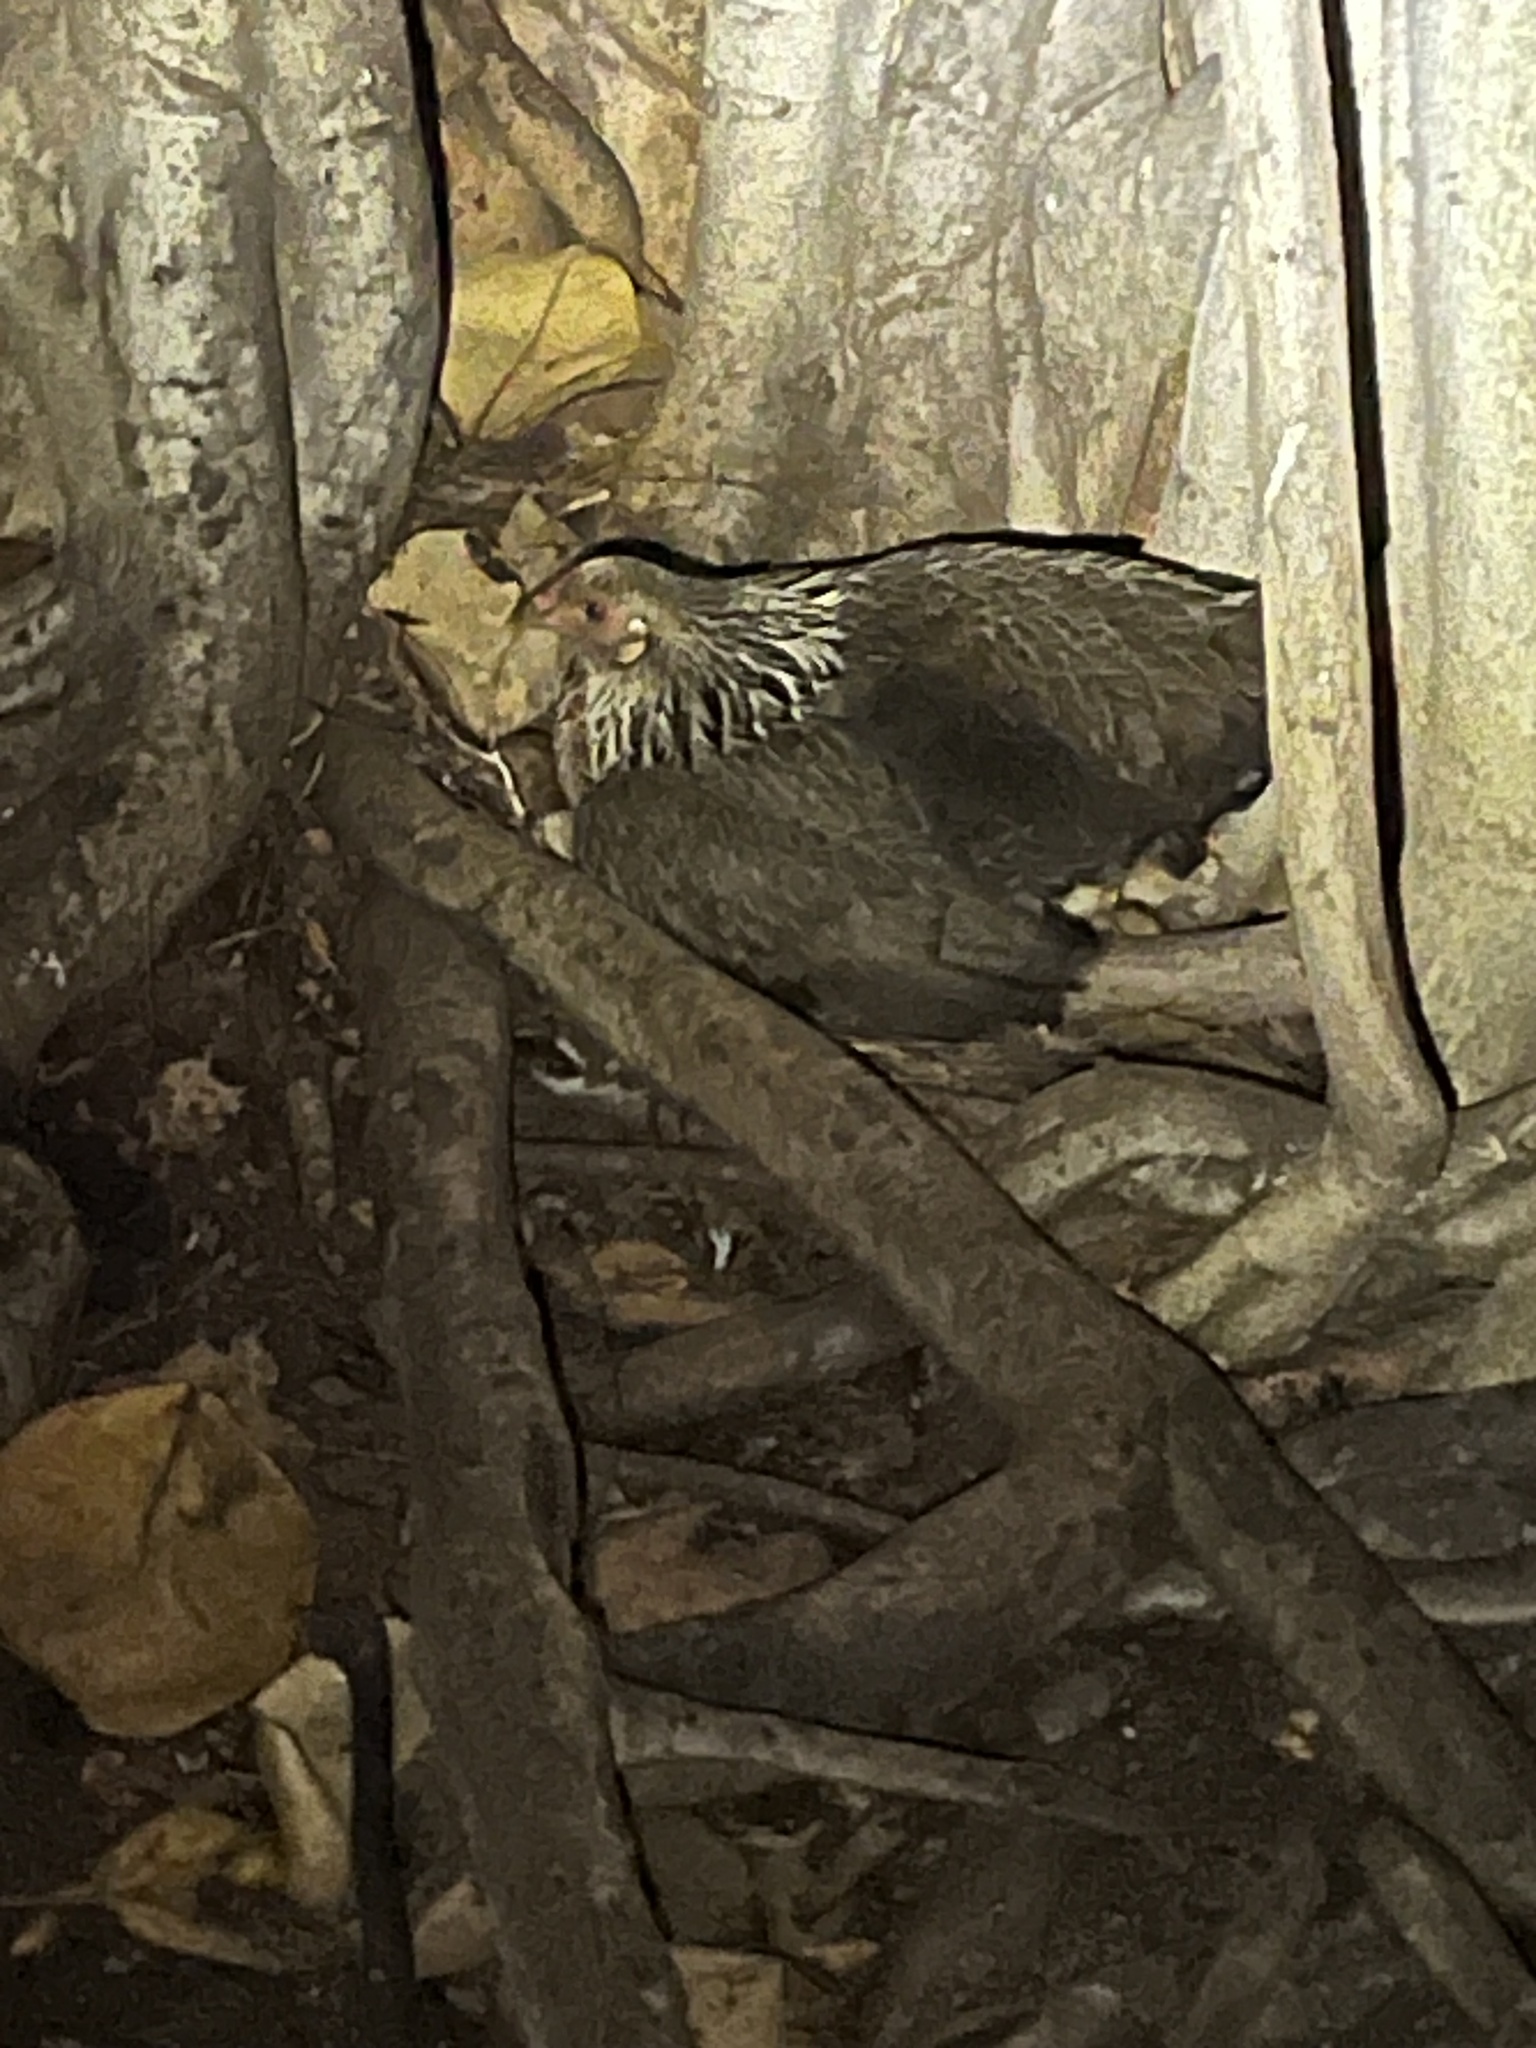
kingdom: Animalia
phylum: Chordata
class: Aves
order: Galliformes
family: Phasianidae
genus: Gallus
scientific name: Gallus gallus
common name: Red junglefowl
